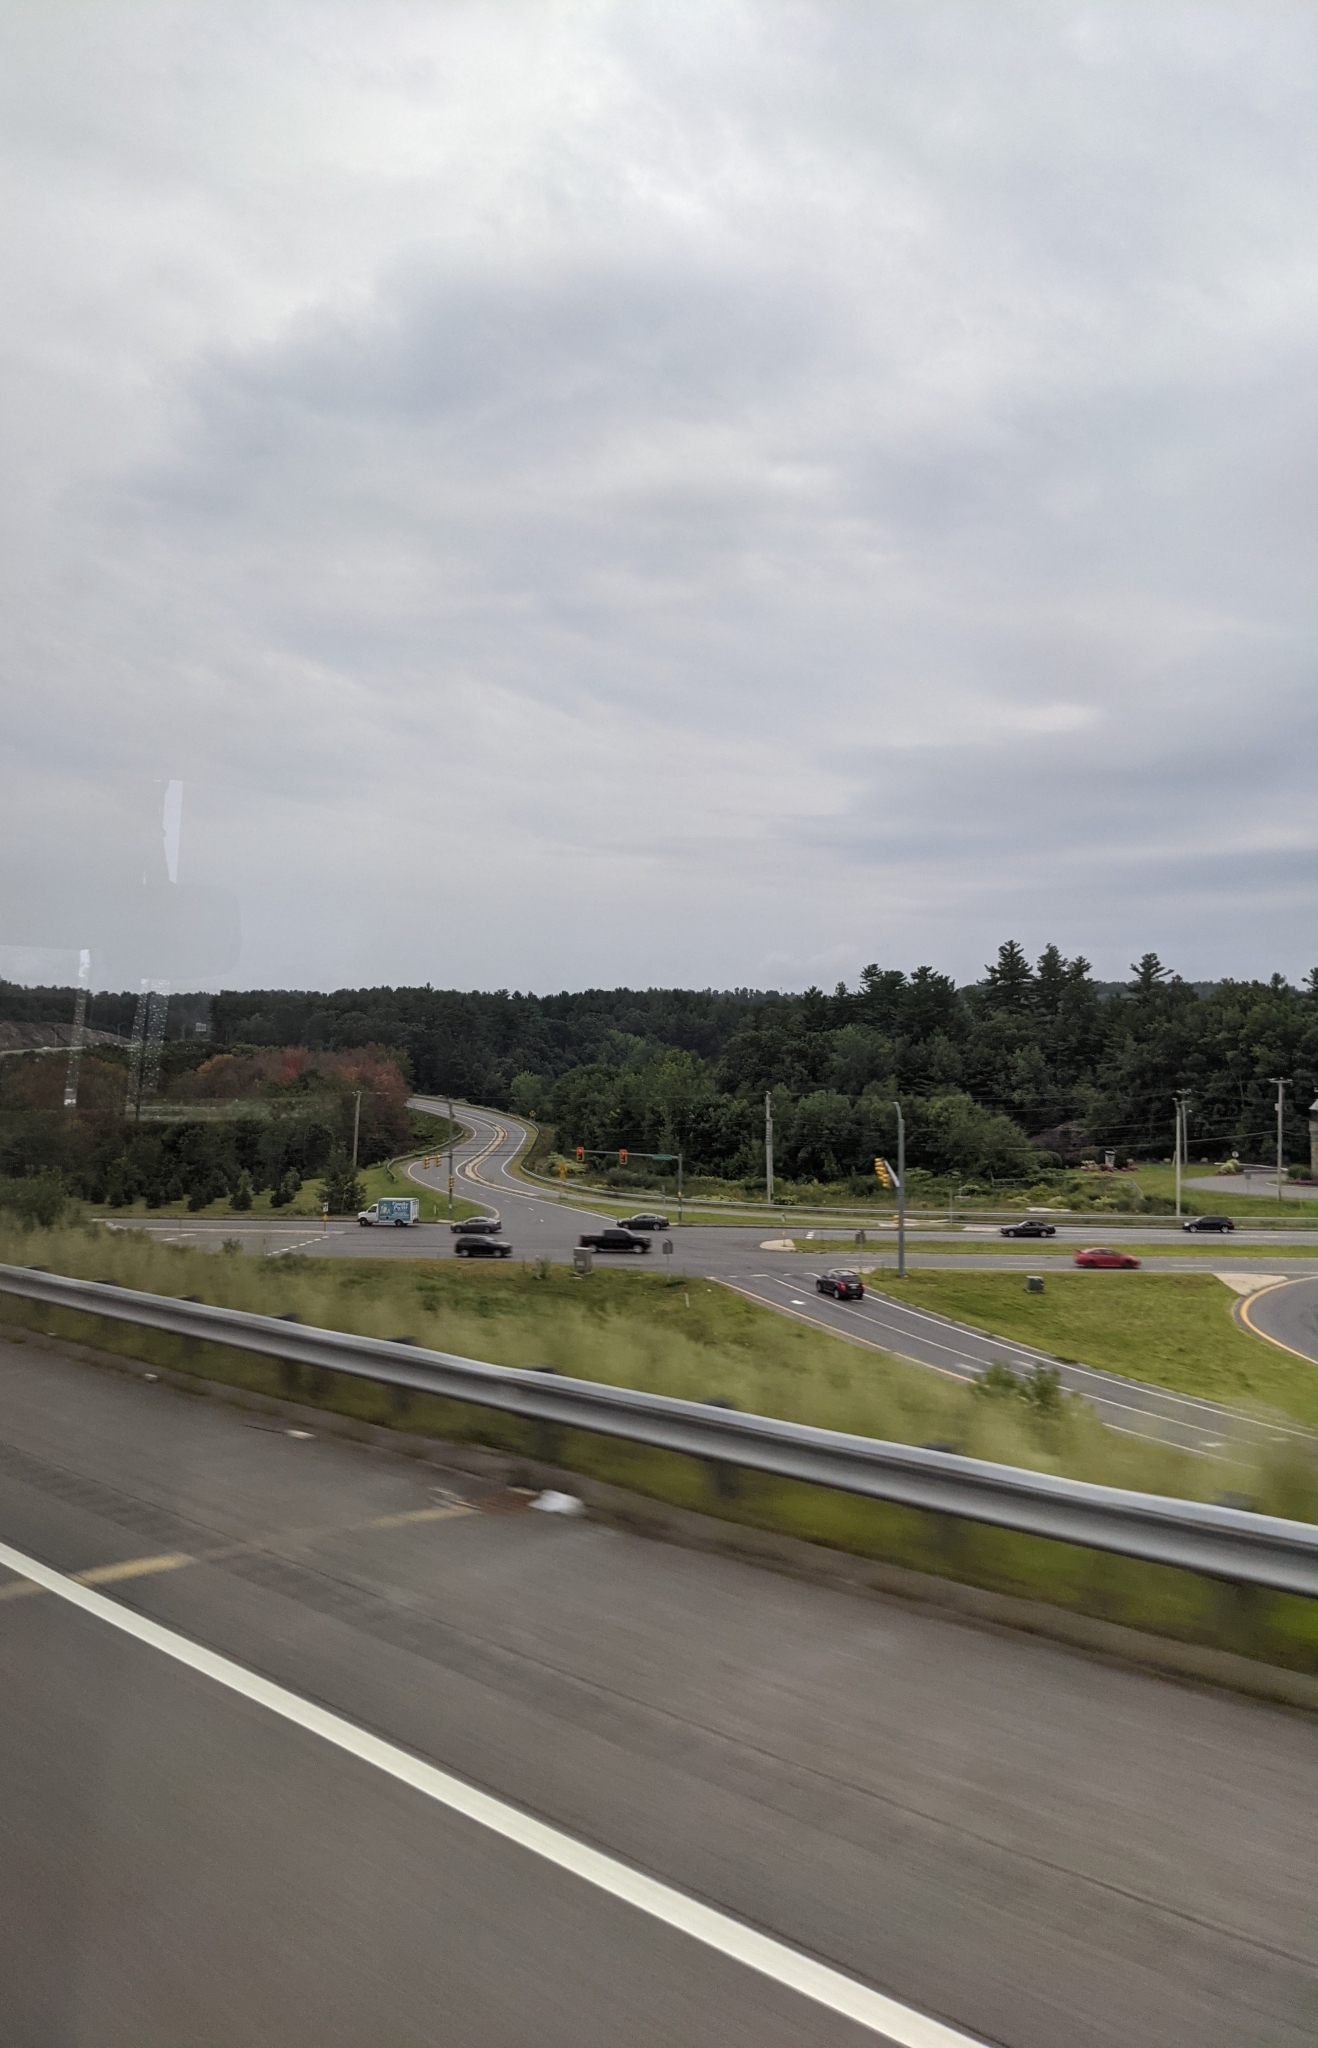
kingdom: Plantae
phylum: Tracheophyta
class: Pinopsida
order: Pinales
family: Pinaceae
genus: Pinus
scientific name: Pinus strobus
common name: Weymouth pine
